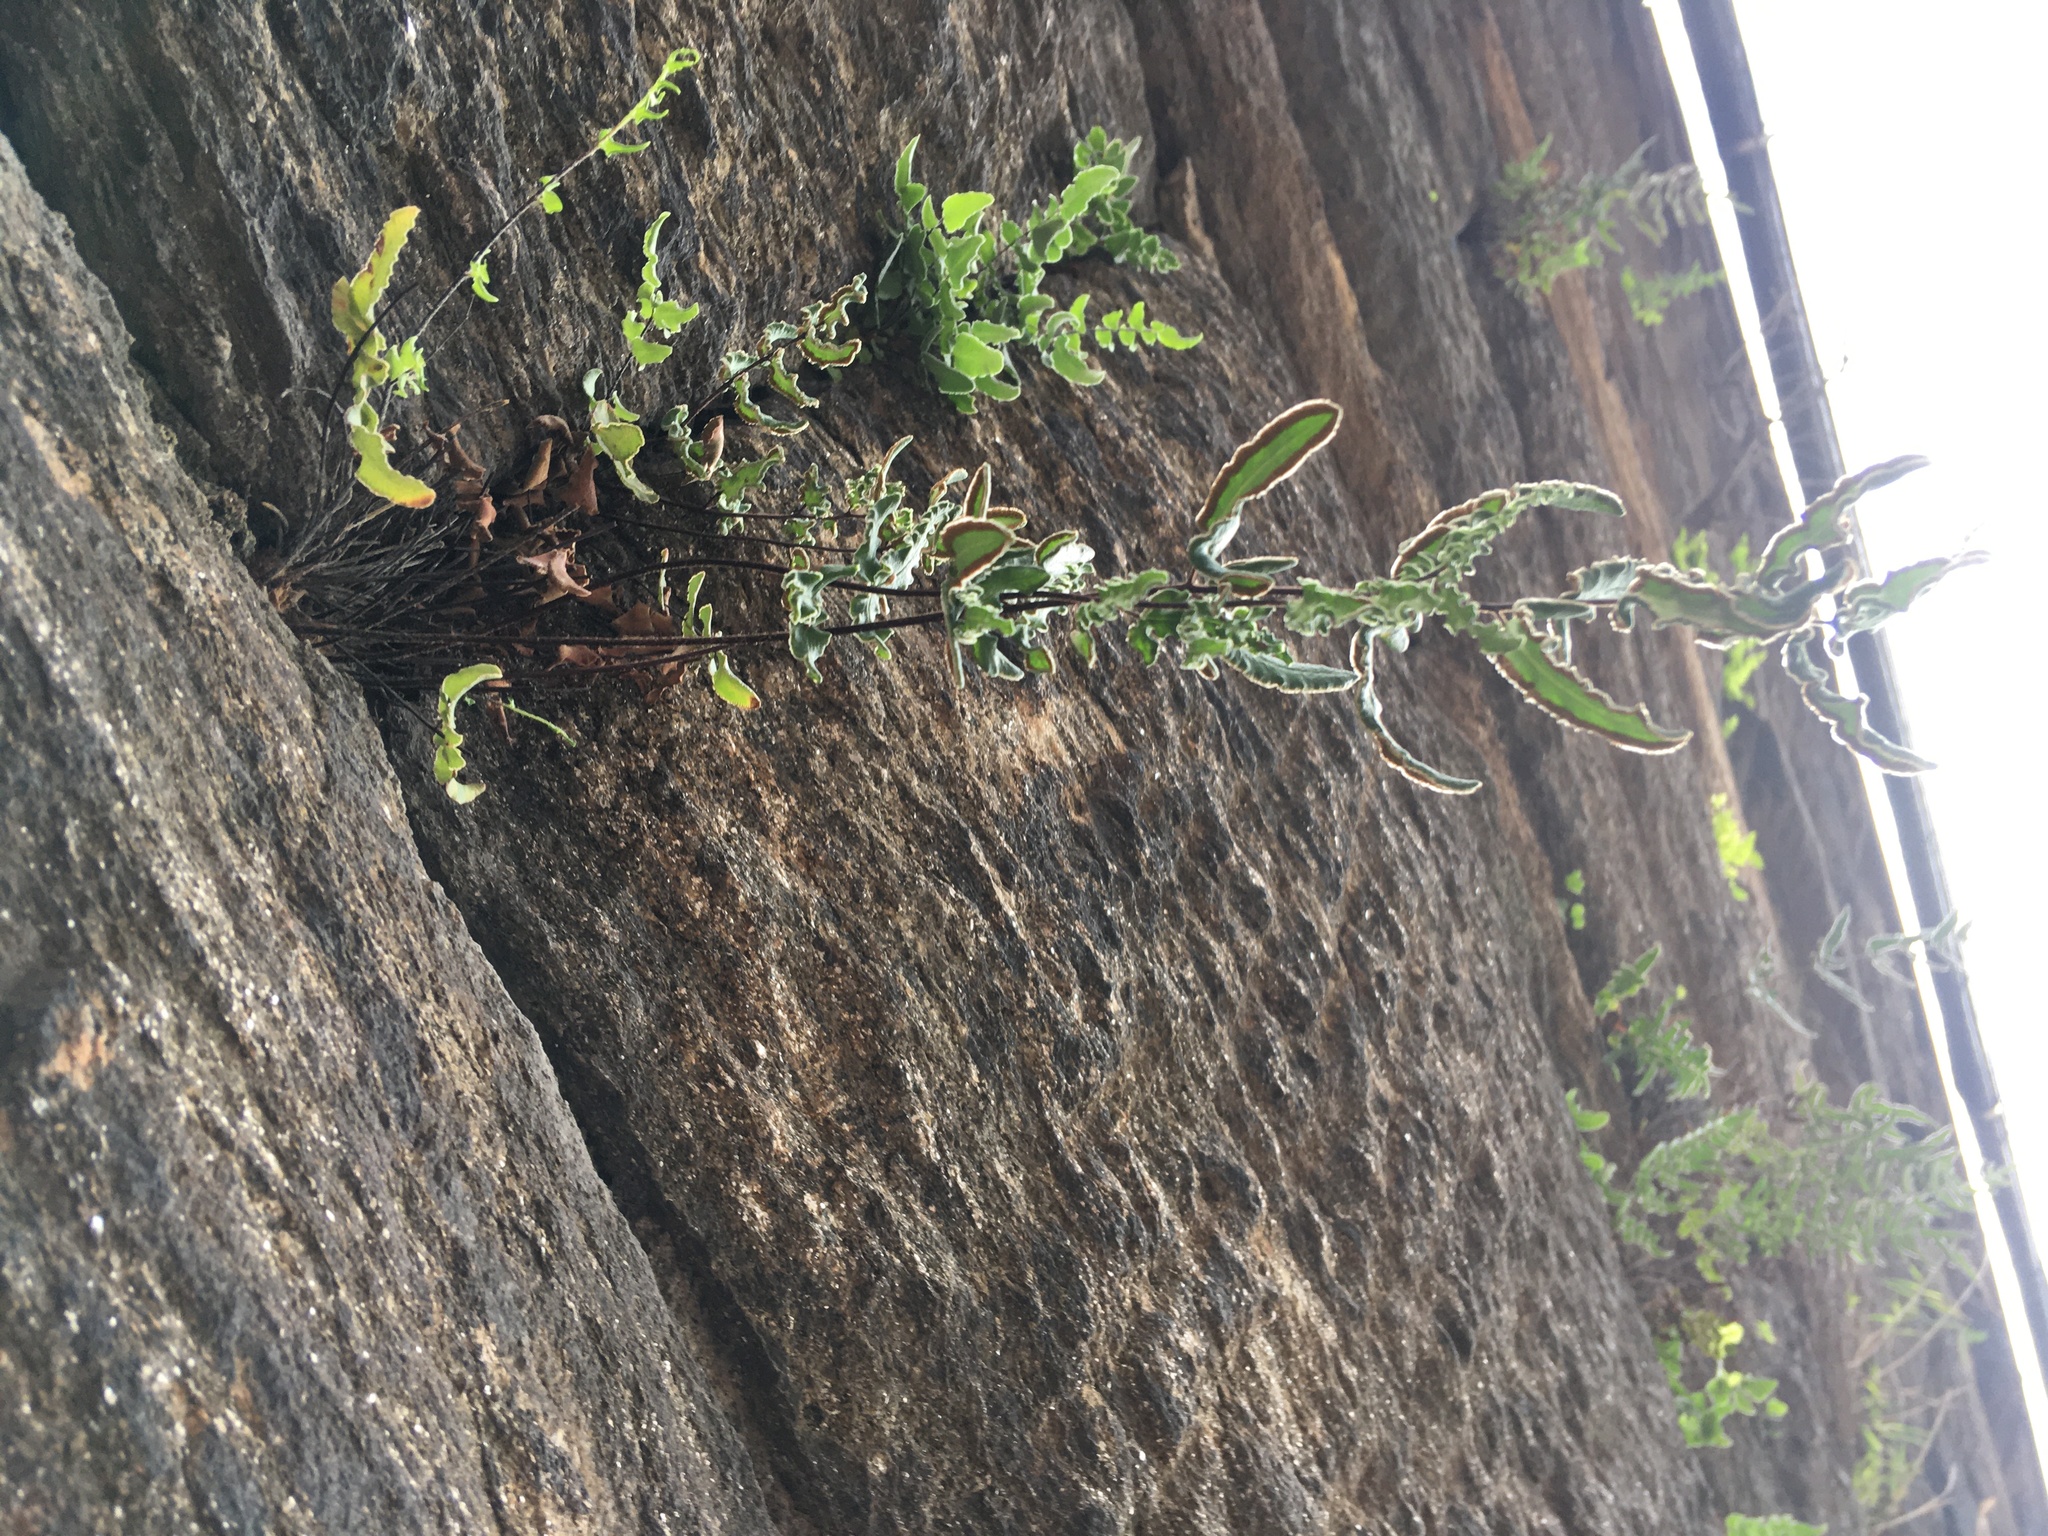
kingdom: Plantae
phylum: Tracheophyta
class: Polypodiopsida
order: Polypodiales
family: Pteridaceae
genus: Pellaea
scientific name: Pellaea atropurpurea
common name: Hairy cliffbrake
